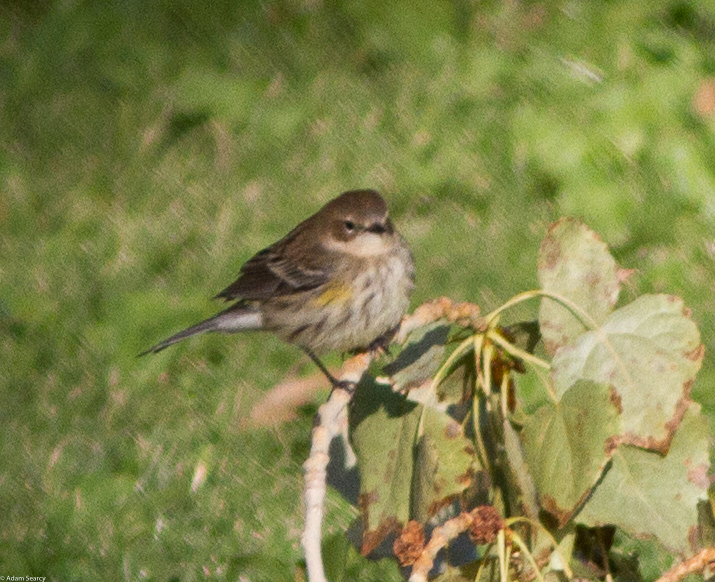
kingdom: Animalia
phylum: Chordata
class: Aves
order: Passeriformes
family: Parulidae
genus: Setophaga
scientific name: Setophaga coronata
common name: Myrtle warbler
